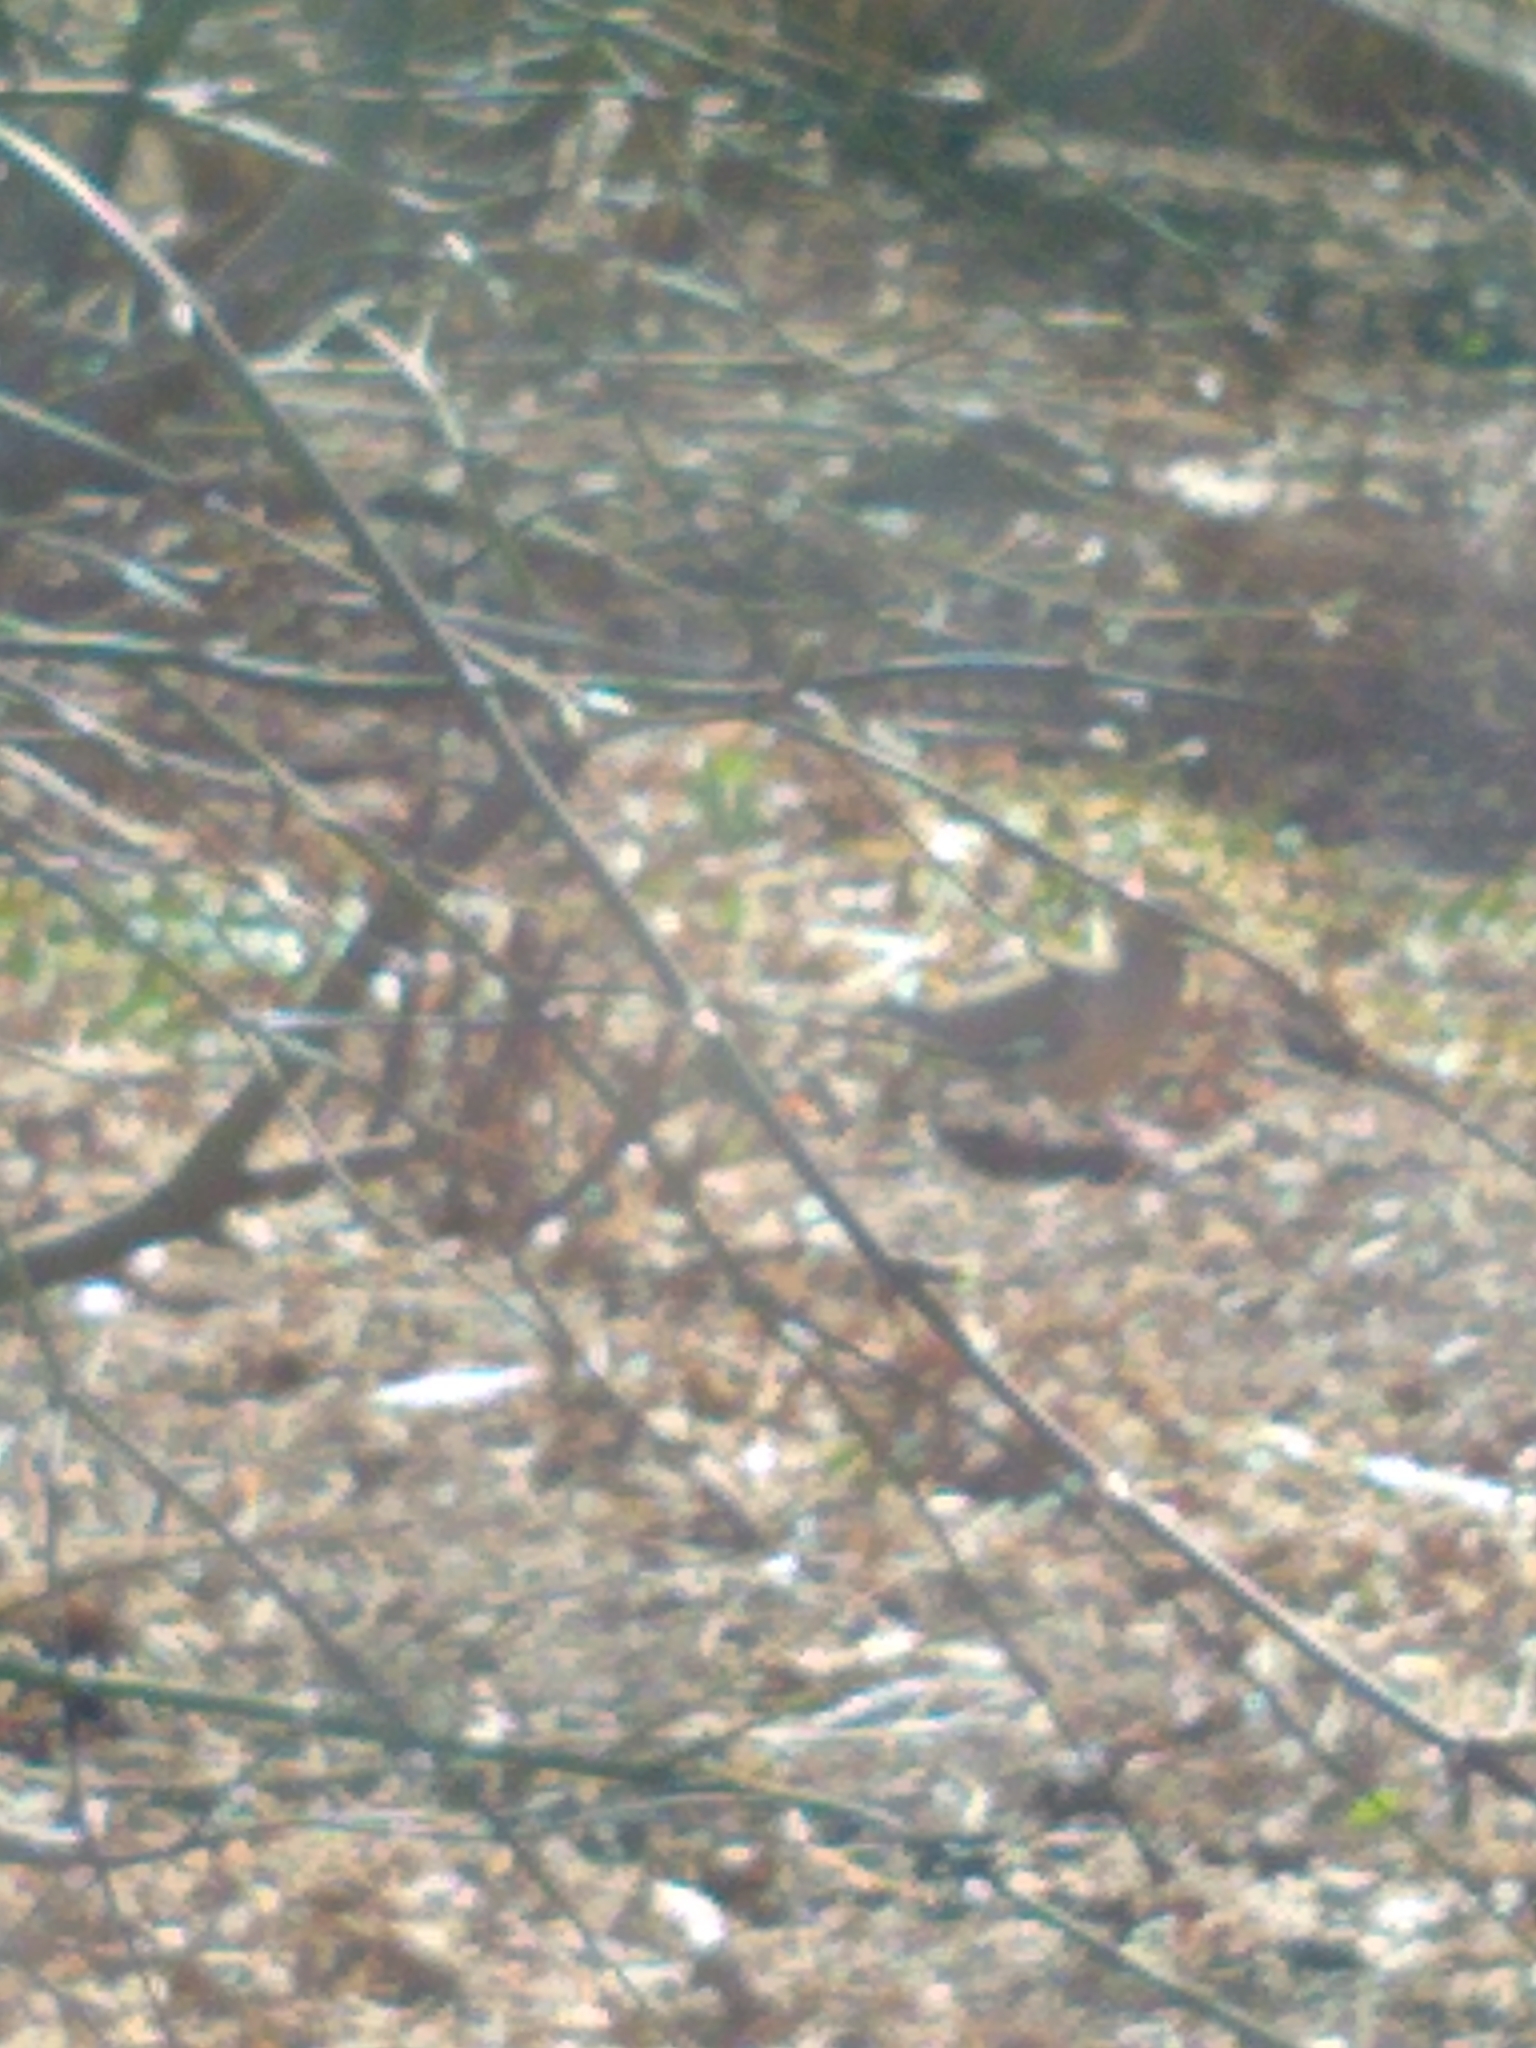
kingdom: Animalia
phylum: Chordata
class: Aves
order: Columbiformes
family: Columbidae
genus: Zenaida
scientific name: Zenaida macroura
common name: Mourning dove
